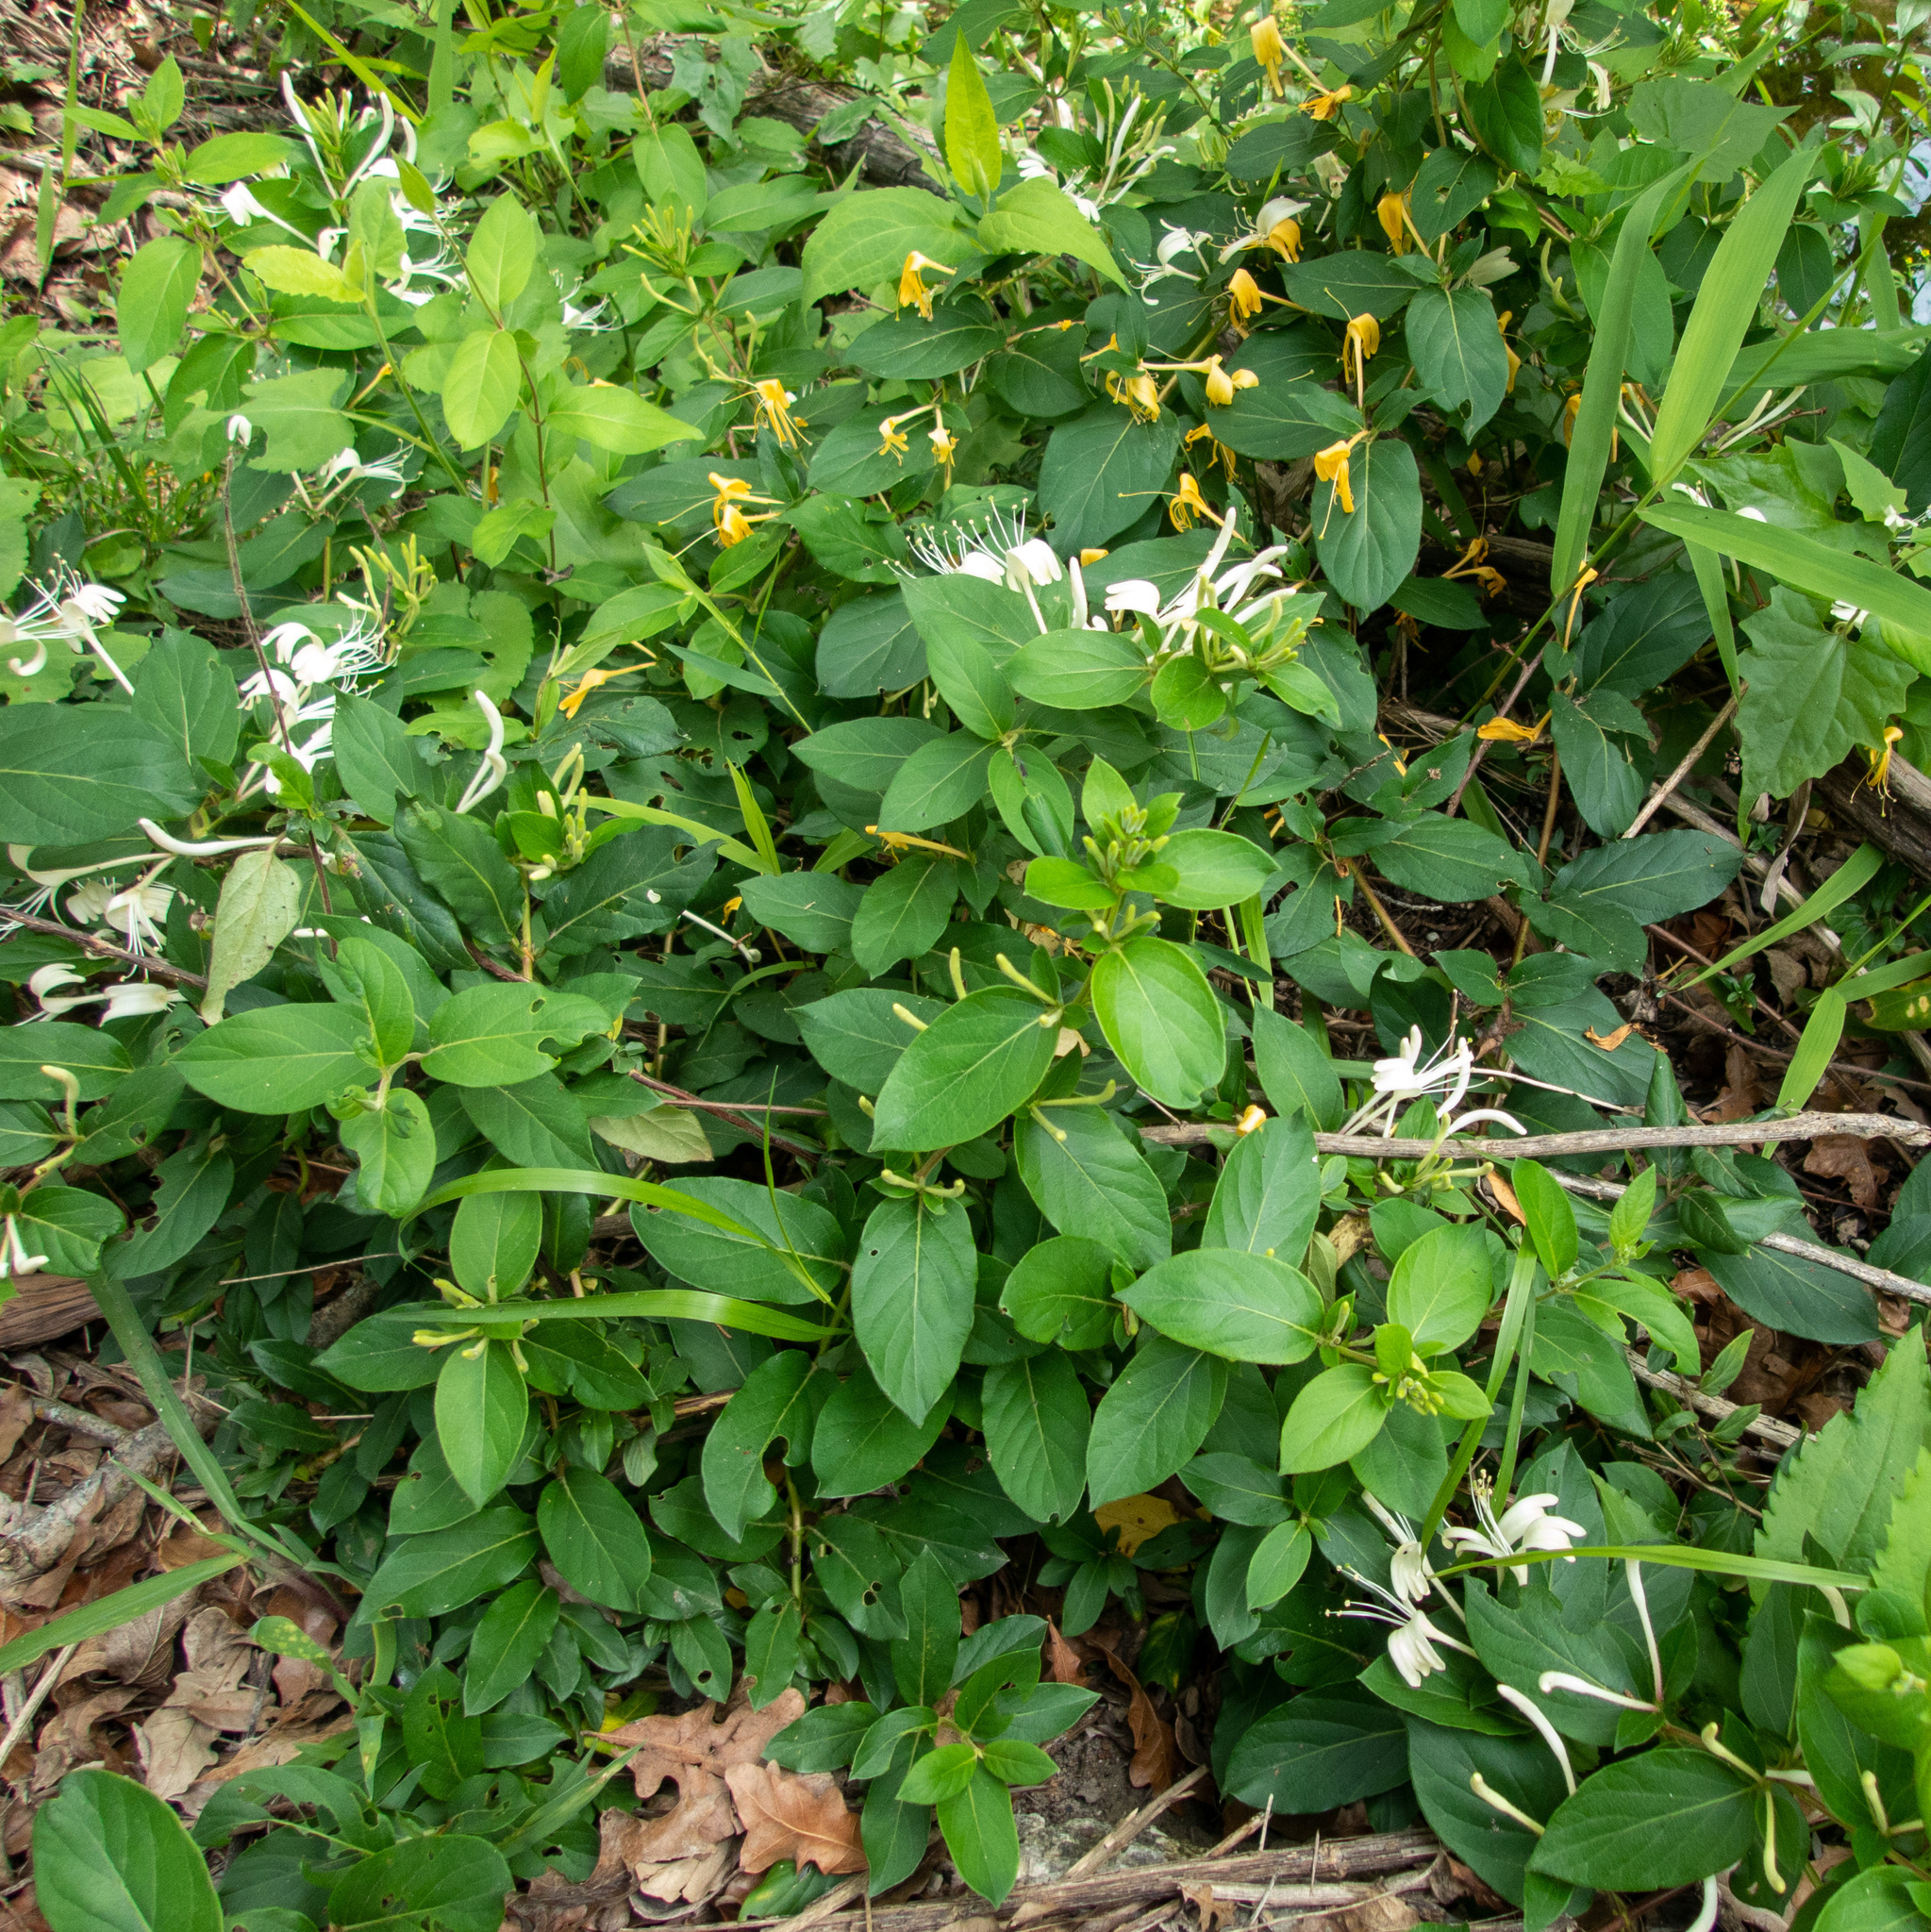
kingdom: Plantae
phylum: Tracheophyta
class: Magnoliopsida
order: Dipsacales
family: Caprifoliaceae
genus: Lonicera
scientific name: Lonicera japonica
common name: Japanese honeysuckle
